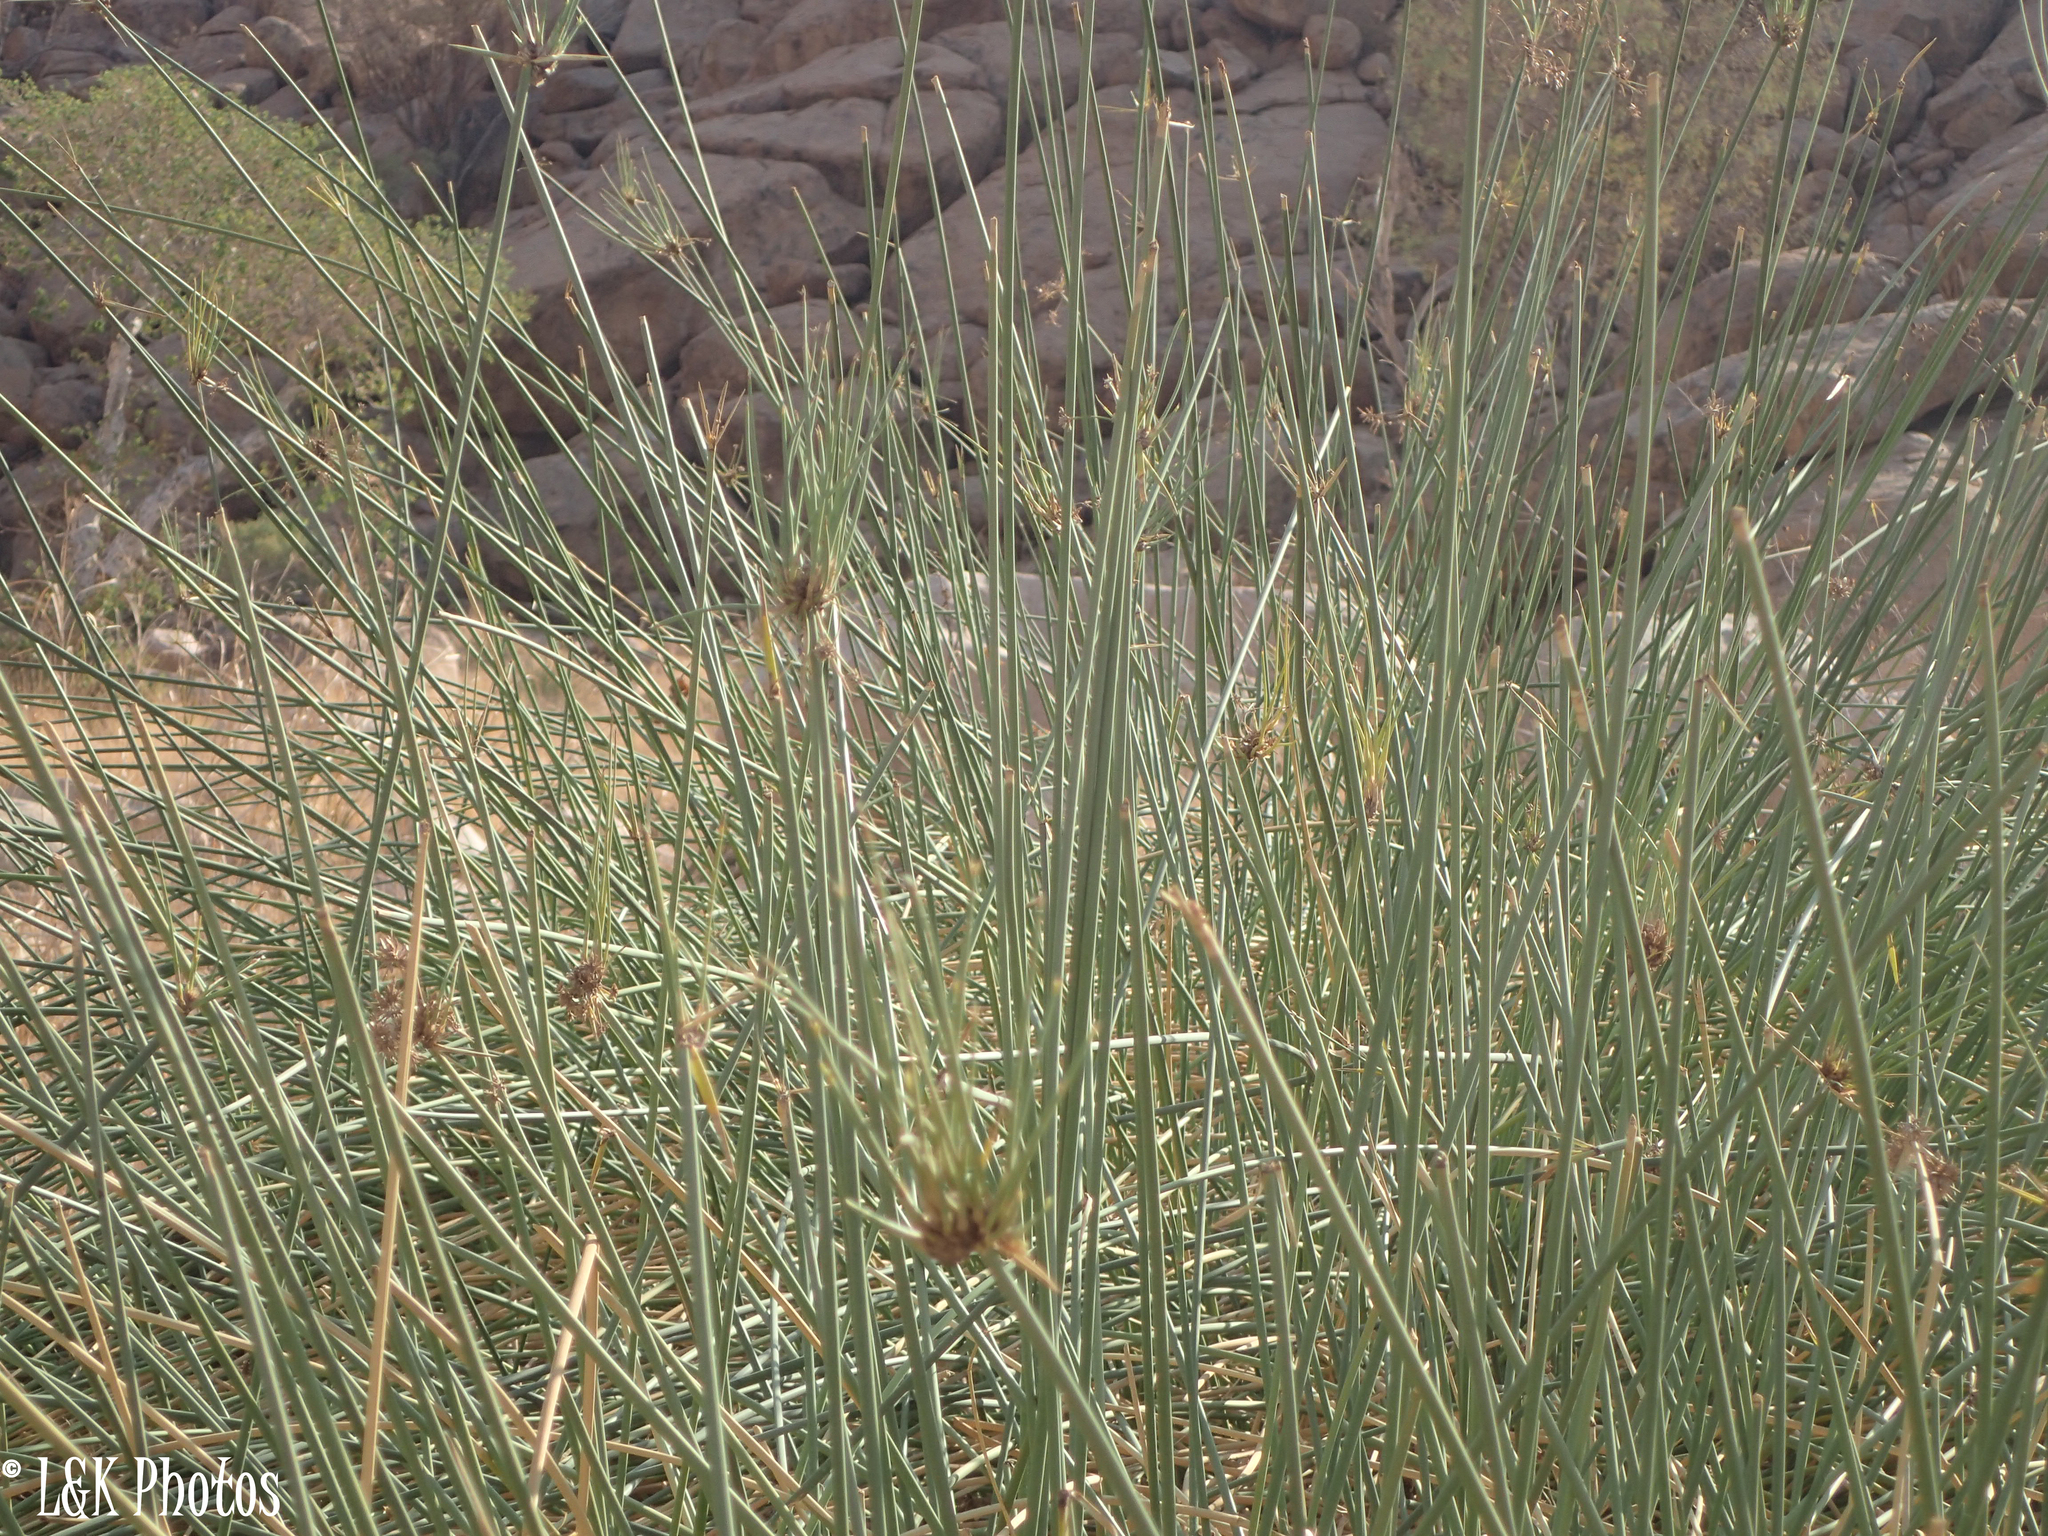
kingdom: Plantae
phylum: Tracheophyta
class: Liliopsida
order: Poales
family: Cyperaceae
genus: Cyperus
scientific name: Cyperus marginatus
